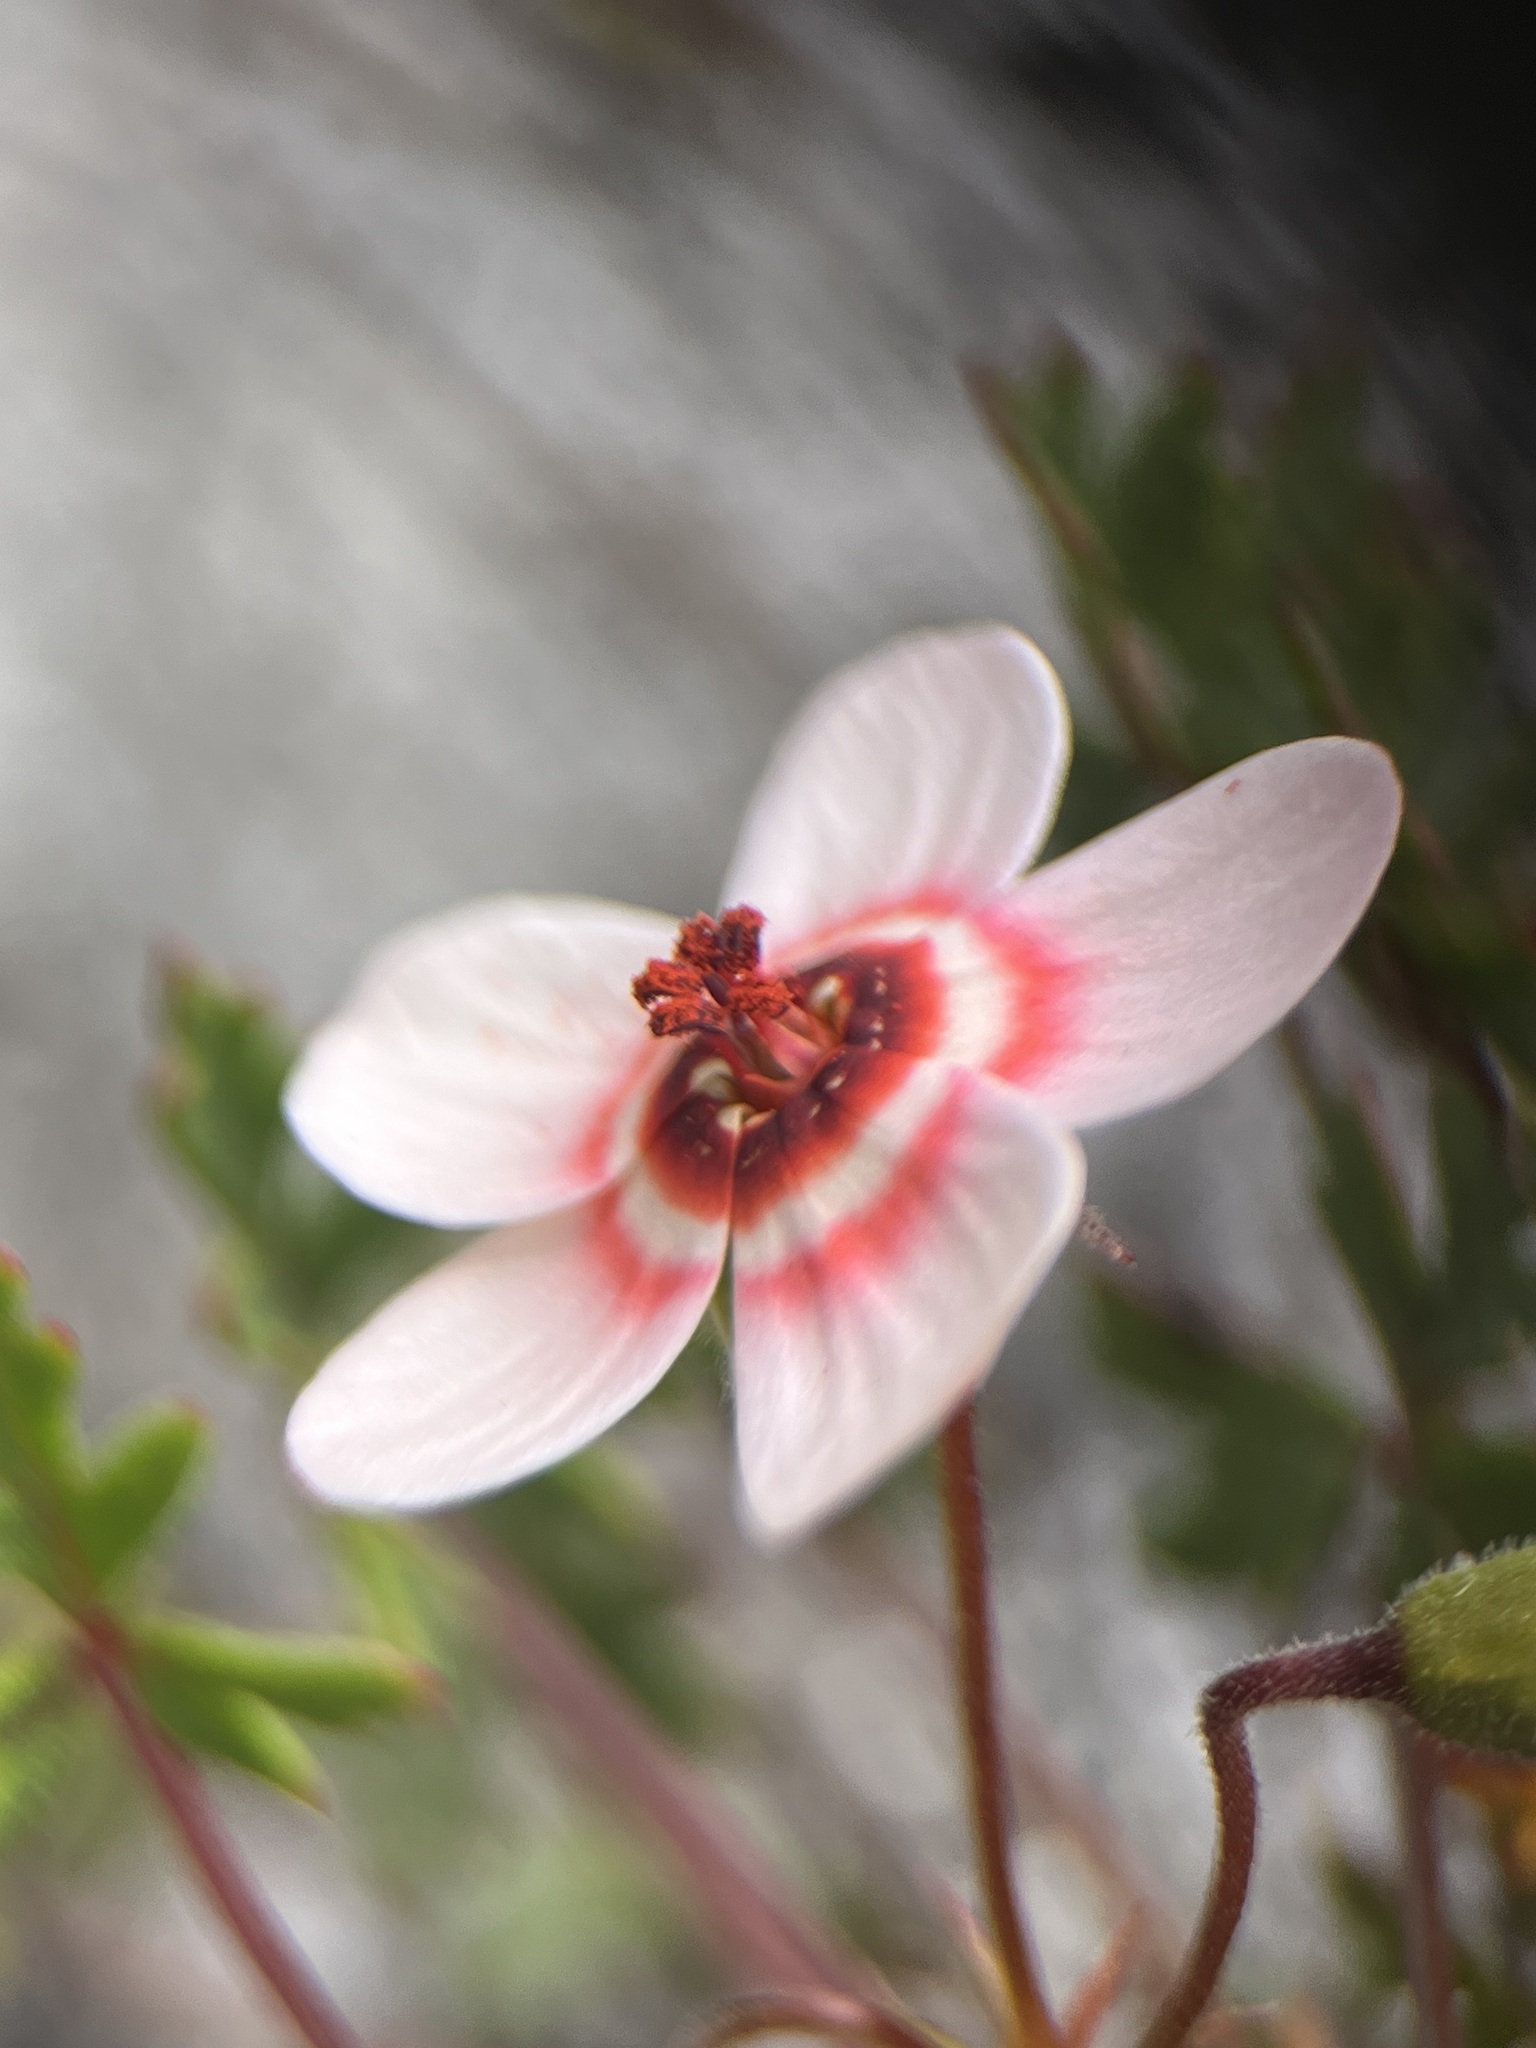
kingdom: Plantae
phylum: Tracheophyta
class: Magnoliopsida
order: Geraniales
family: Geraniaceae
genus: Pelargonium
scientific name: Pelargonium incarnatum
